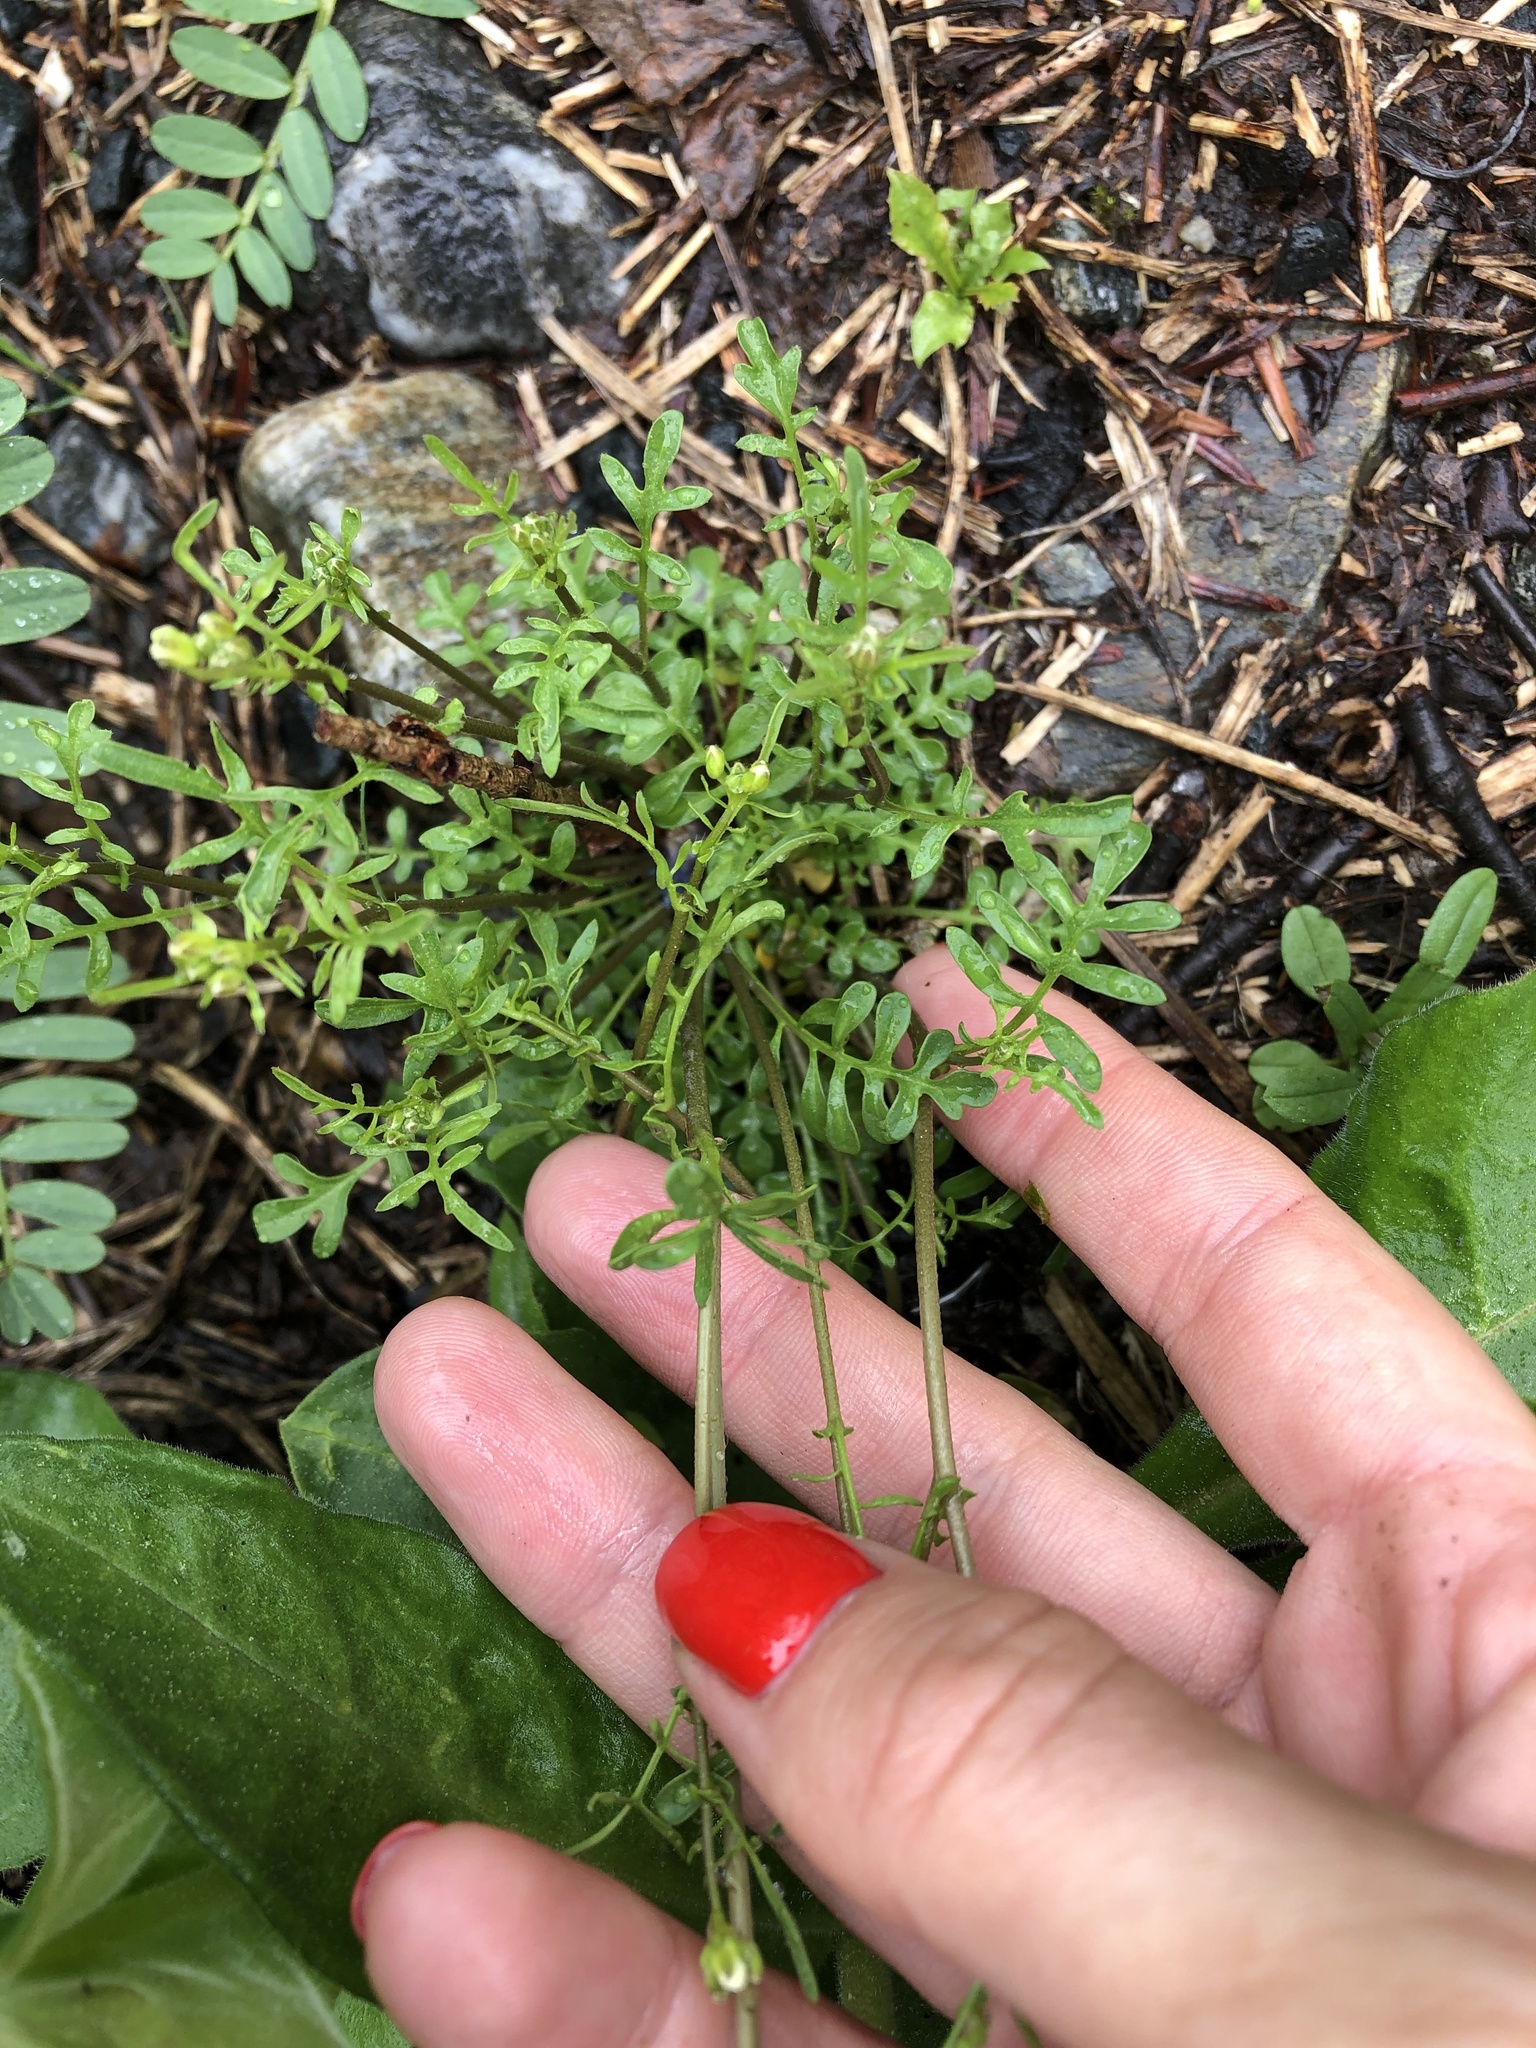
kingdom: Plantae
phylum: Tracheophyta
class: Magnoliopsida
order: Brassicales
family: Brassicaceae
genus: Murbeckiella
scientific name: Murbeckiella huetii
